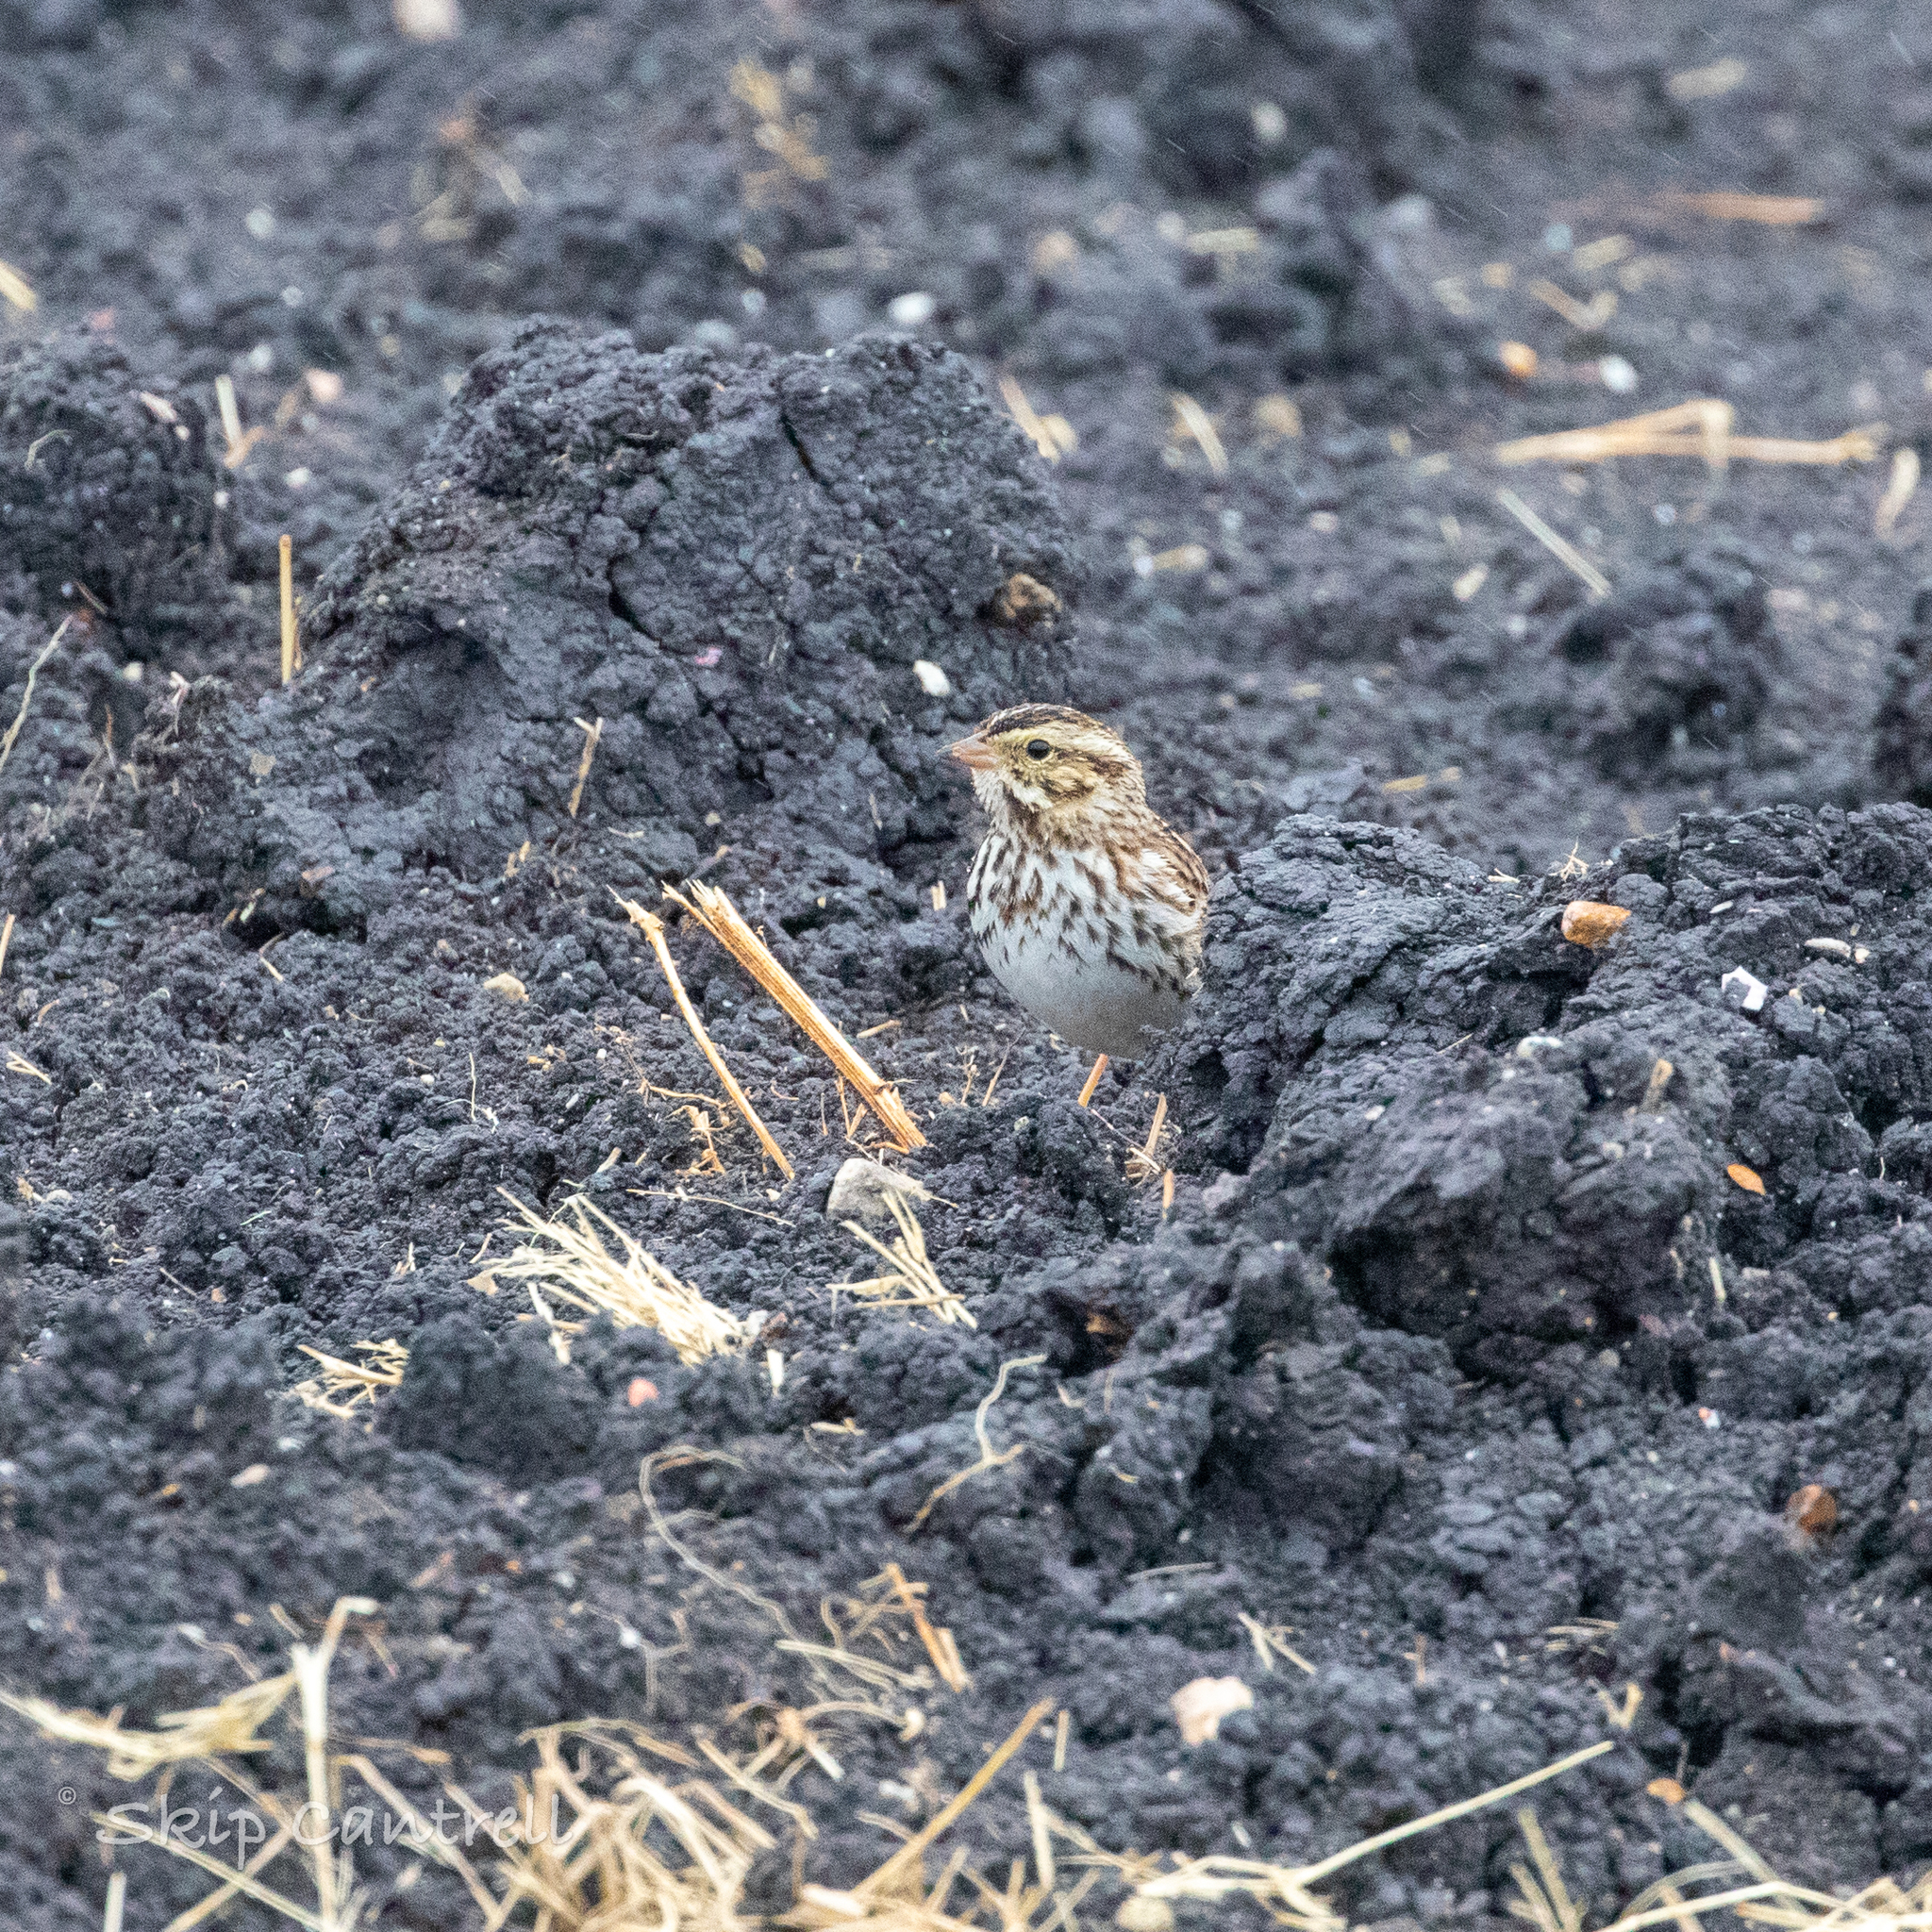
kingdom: Animalia
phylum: Chordata
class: Aves
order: Passeriformes
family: Passerellidae
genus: Passerculus
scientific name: Passerculus sandwichensis
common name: Savannah sparrow
